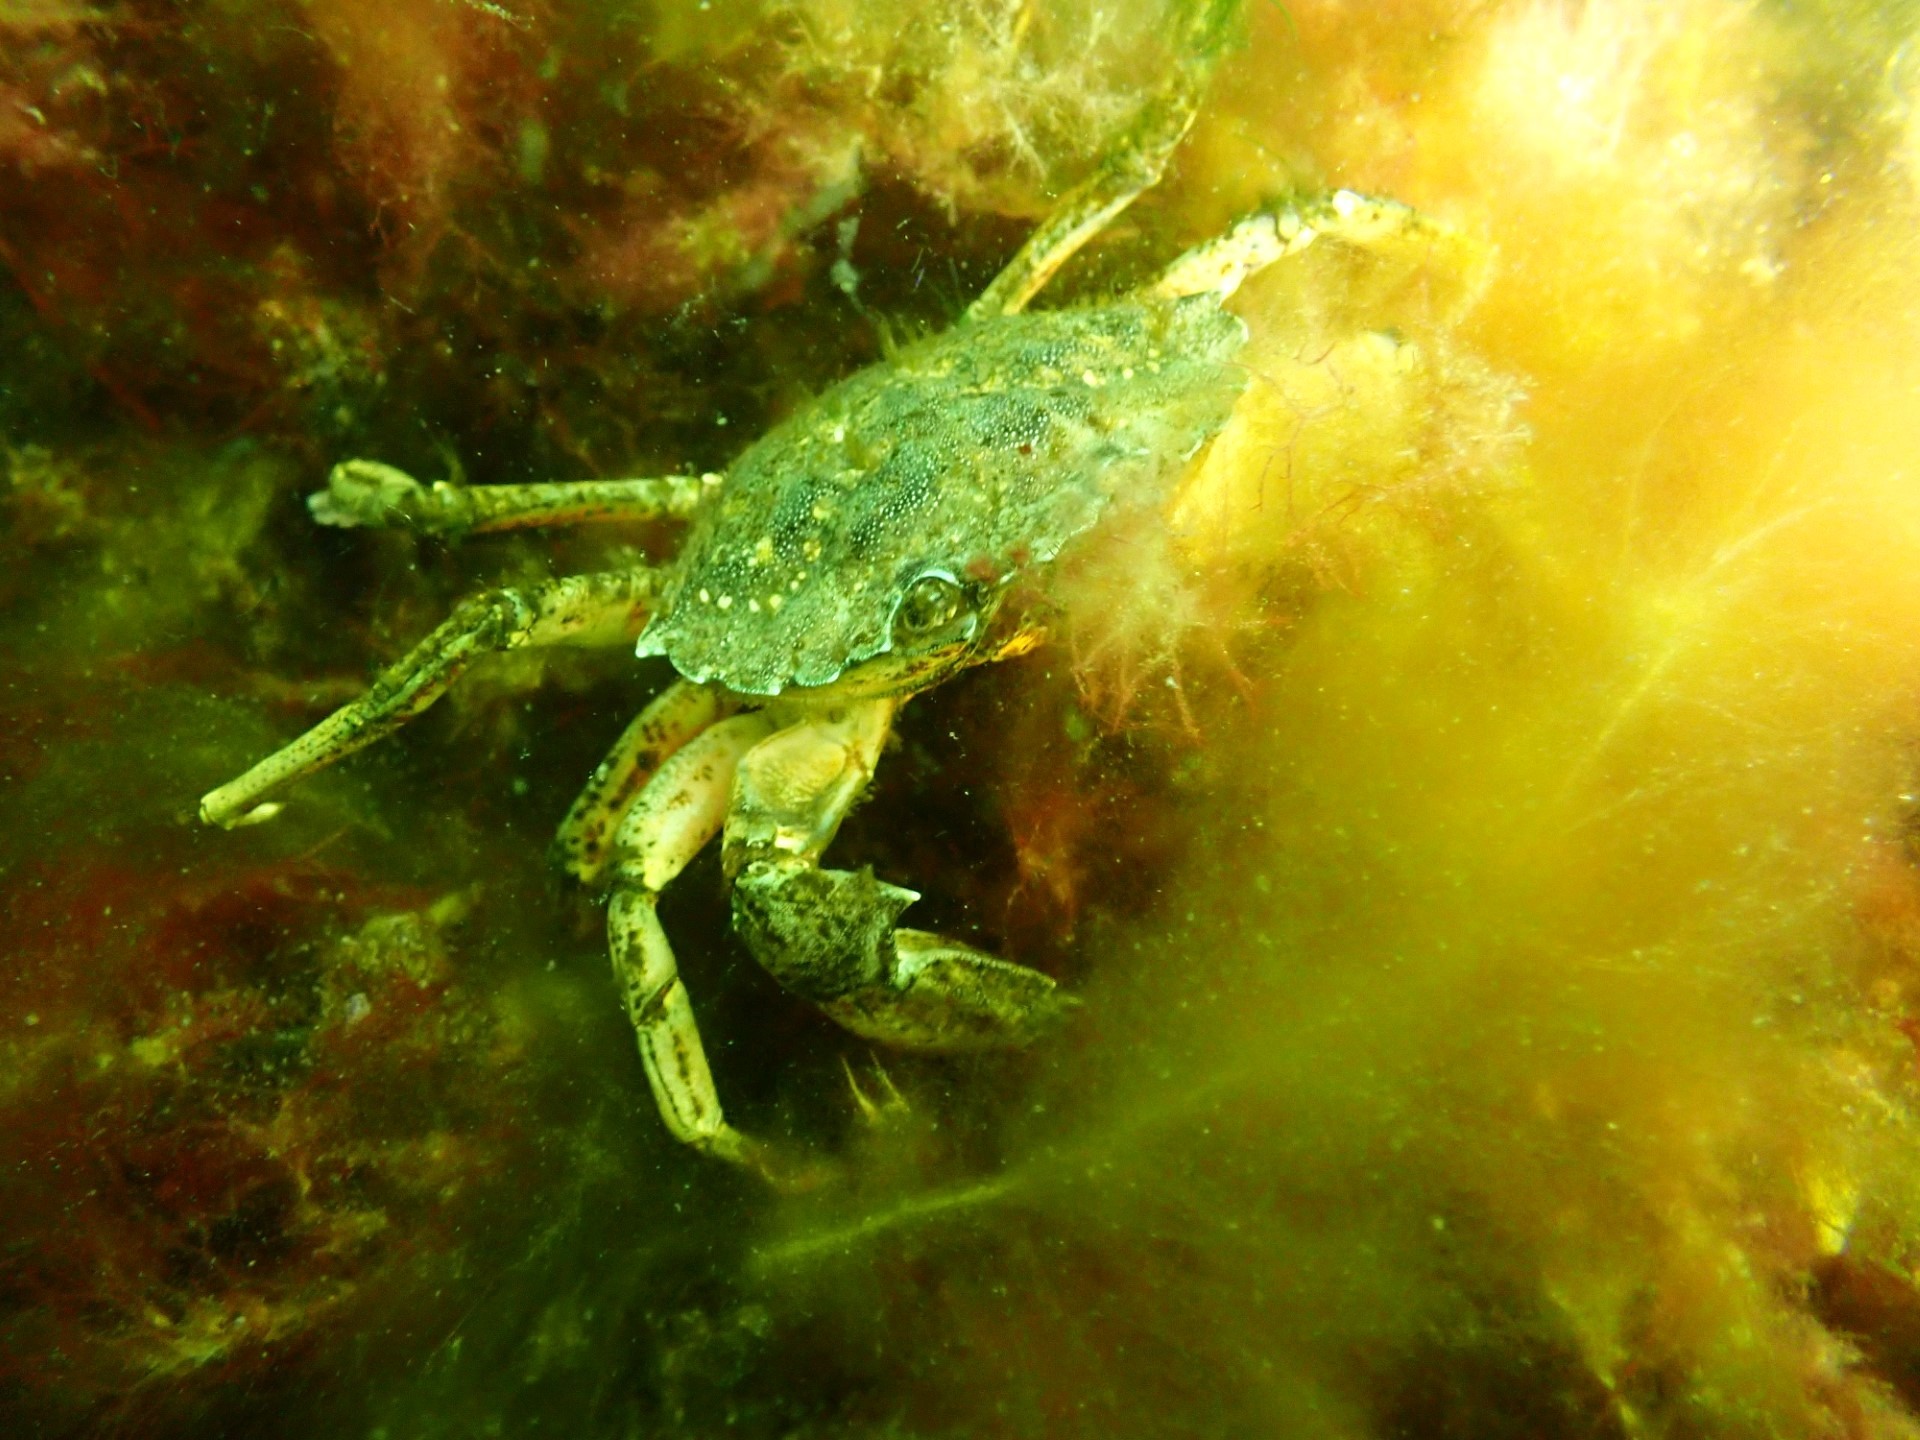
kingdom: Animalia
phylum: Arthropoda
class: Malacostraca
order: Decapoda
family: Carcinidae
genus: Carcinus
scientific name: Carcinus maenas
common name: European green crab
